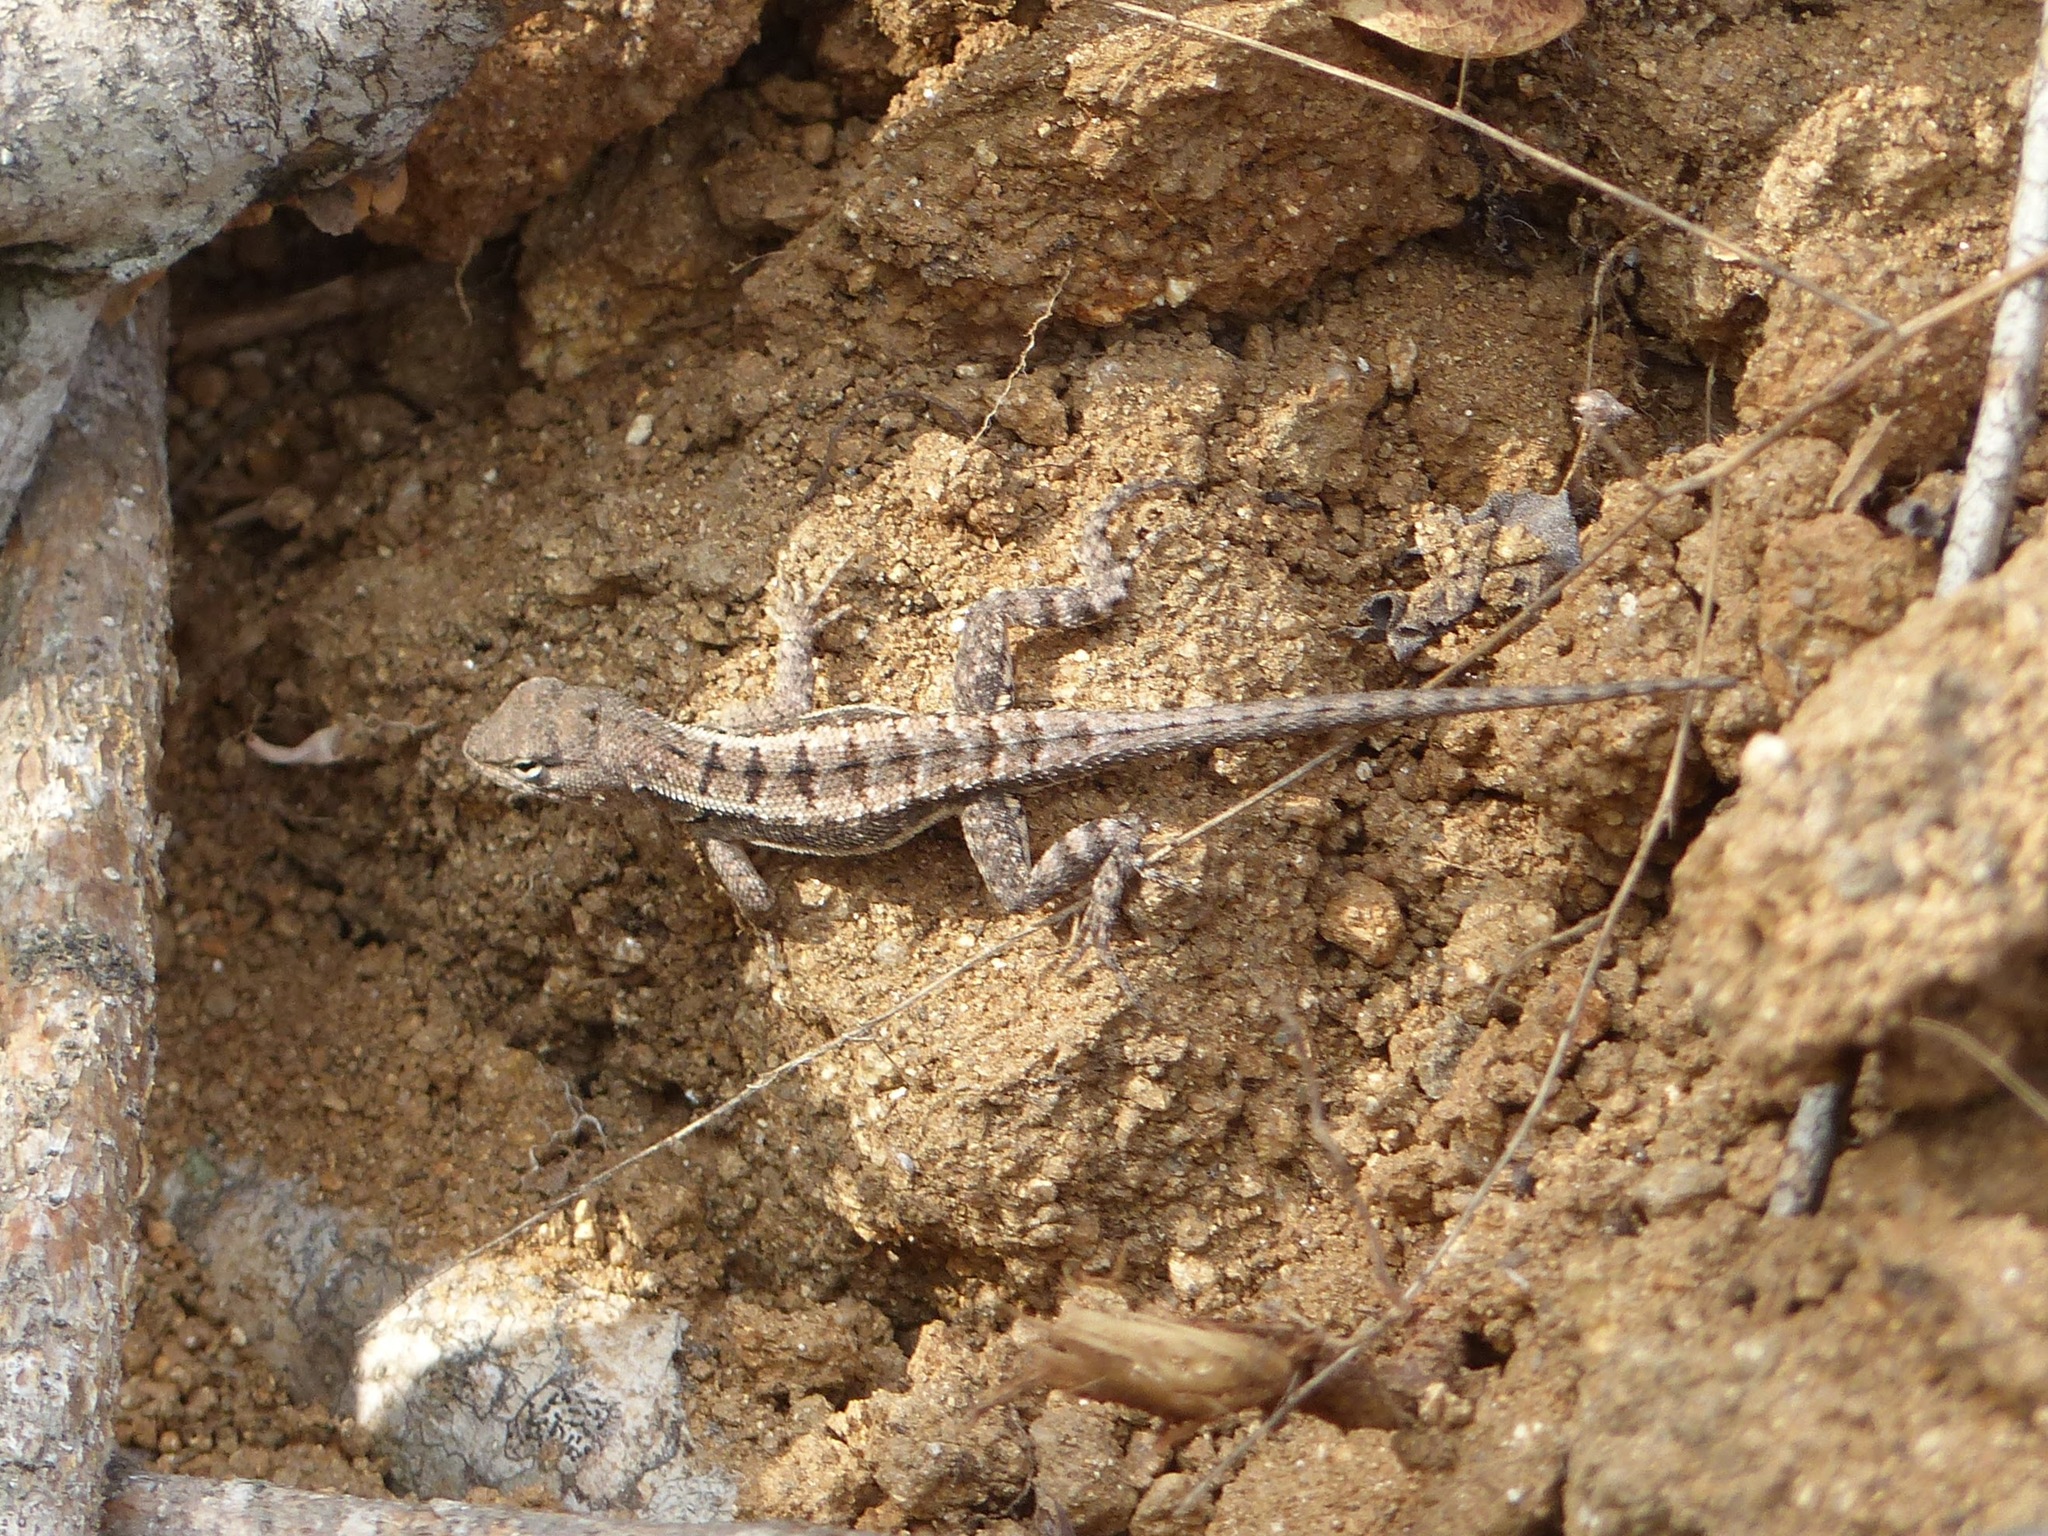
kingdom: Animalia
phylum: Chordata
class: Squamata
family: Tropiduridae
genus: Microlophus
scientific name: Microlophus occipitalis
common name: Knobbed pacific iguana
